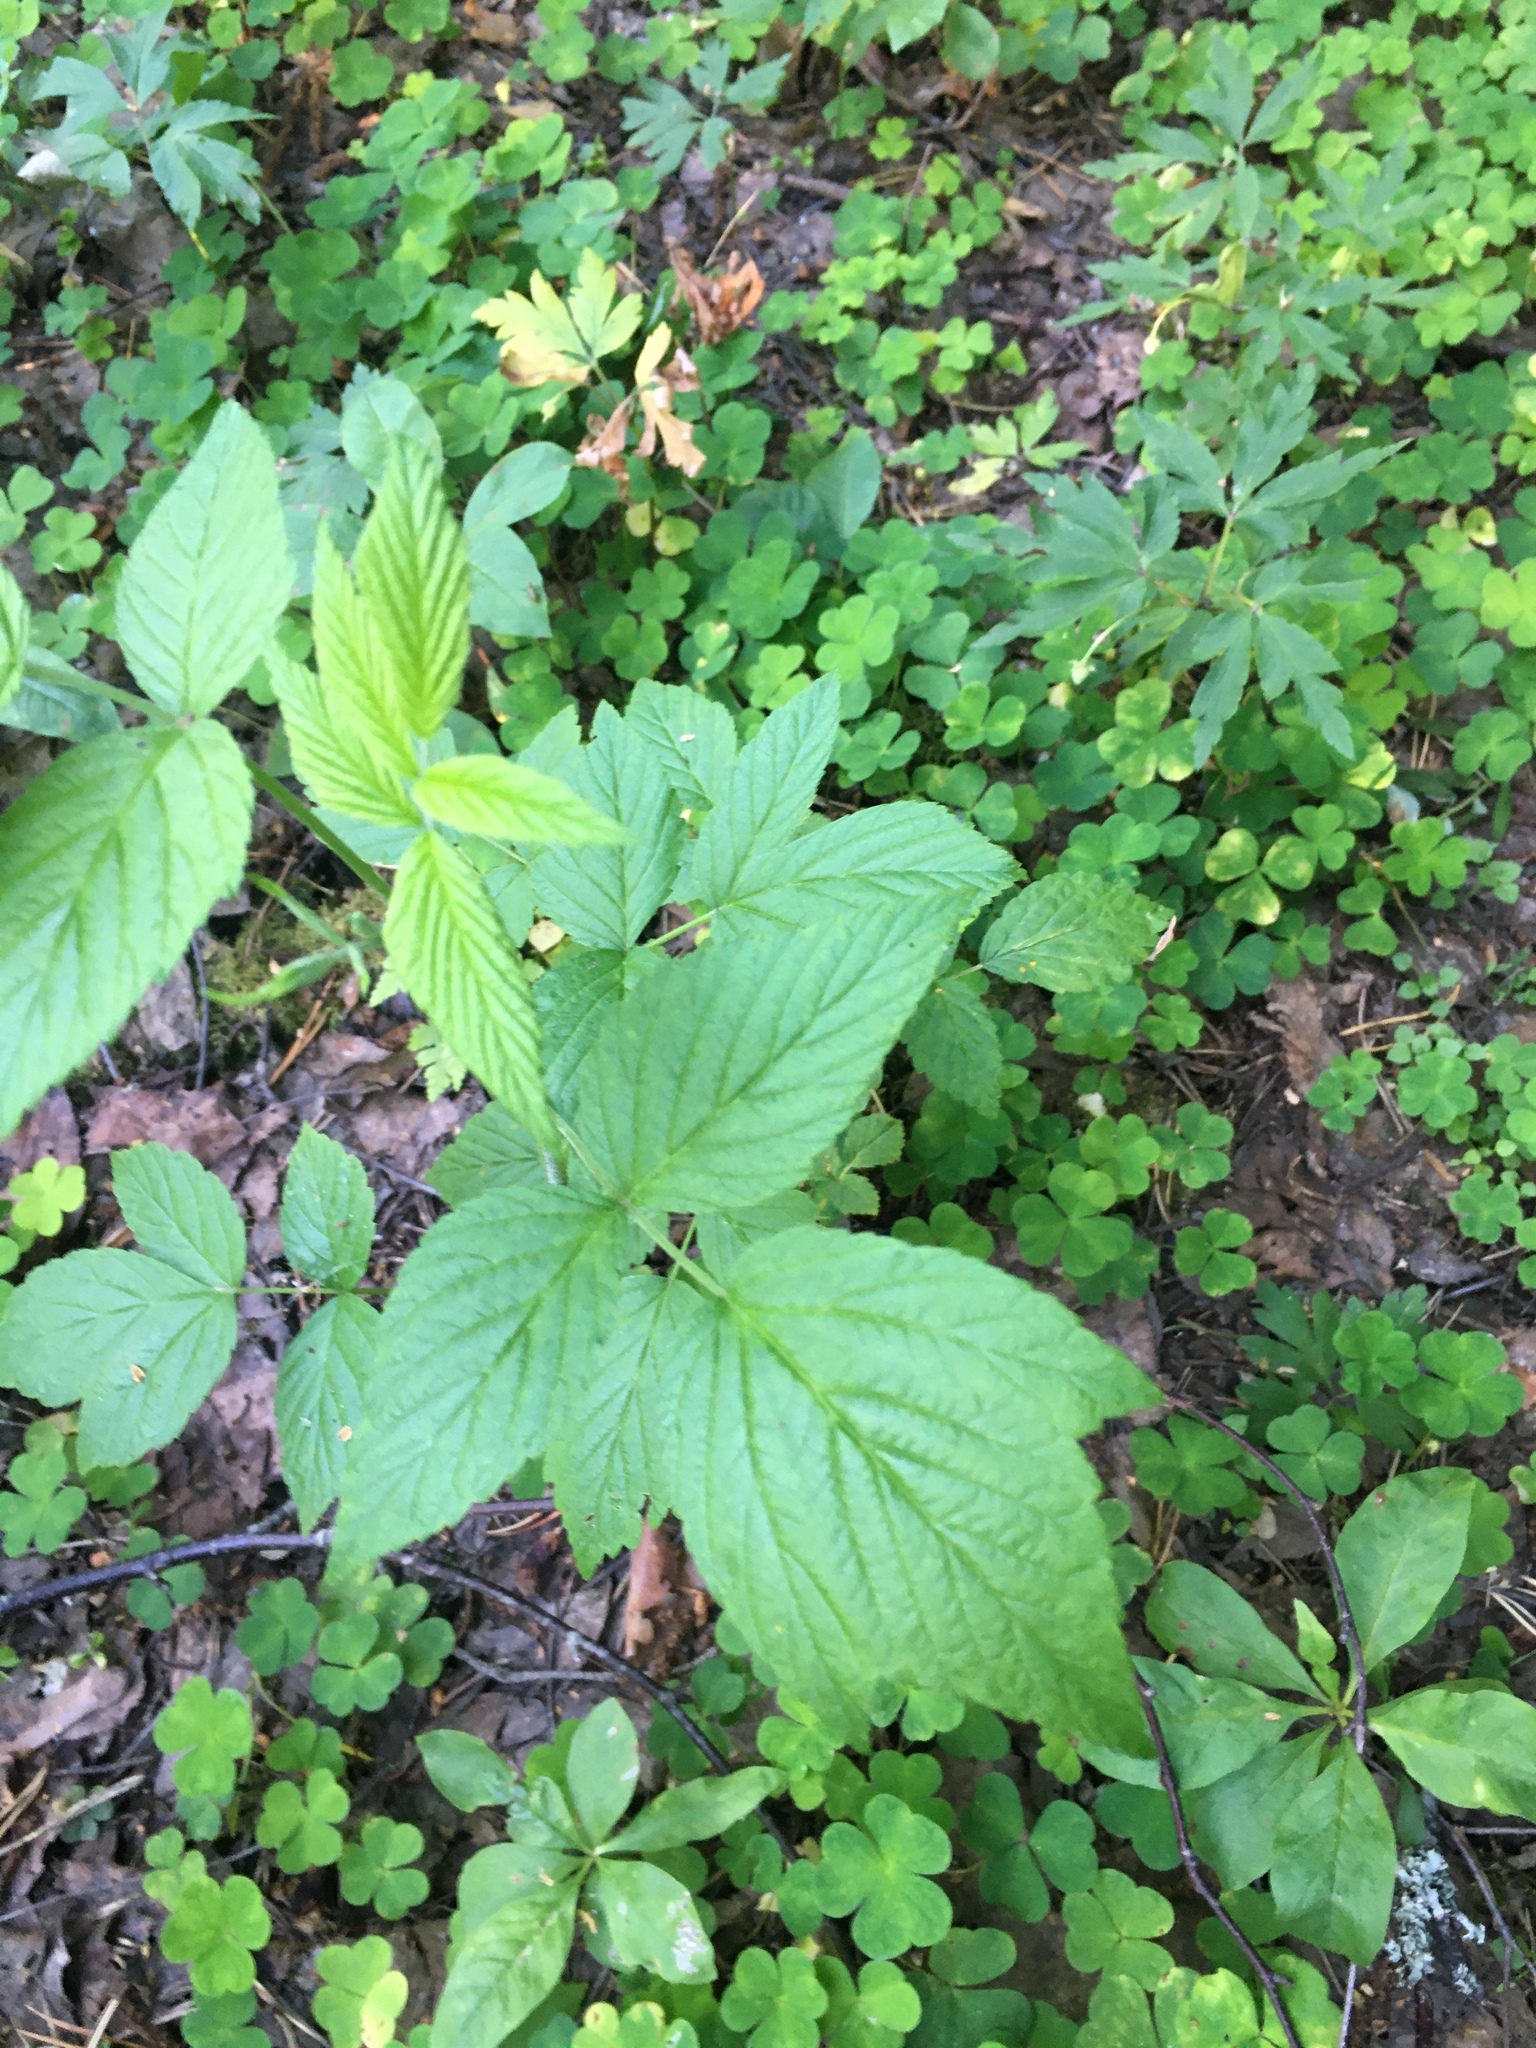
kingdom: Plantae
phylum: Tracheophyta
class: Magnoliopsida
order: Rosales
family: Rosaceae
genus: Rubus
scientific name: Rubus idaeus
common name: Raspberry
